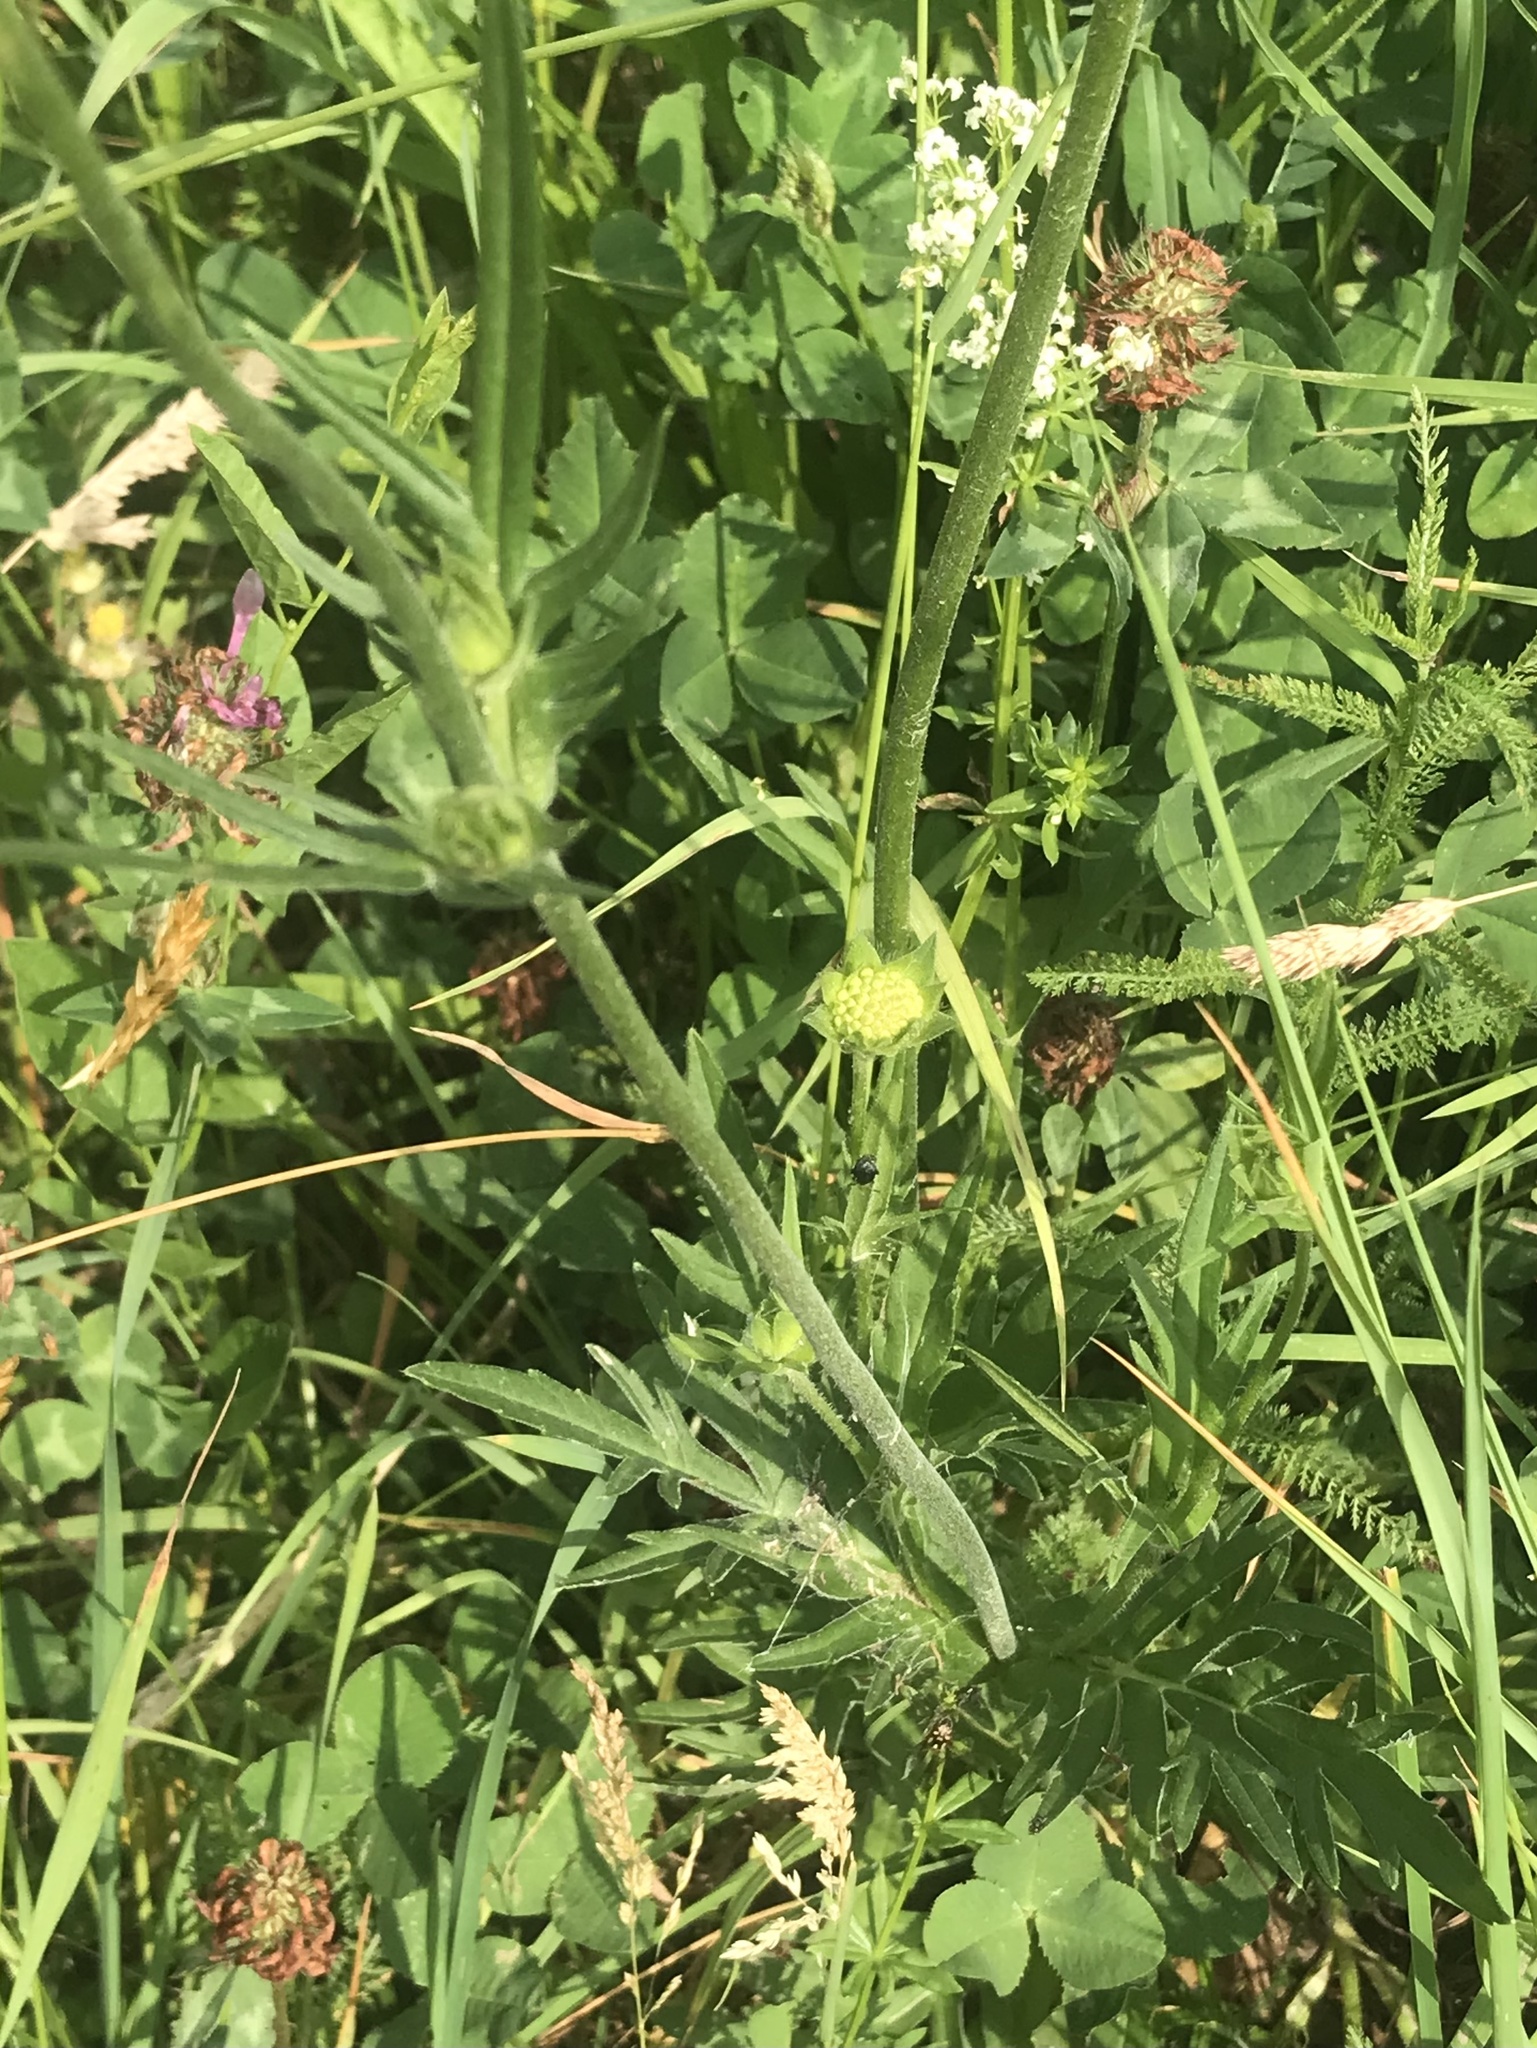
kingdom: Plantae
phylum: Tracheophyta
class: Magnoliopsida
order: Dipsacales
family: Caprifoliaceae
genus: Knautia
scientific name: Knautia arvensis
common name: Field scabiosa
